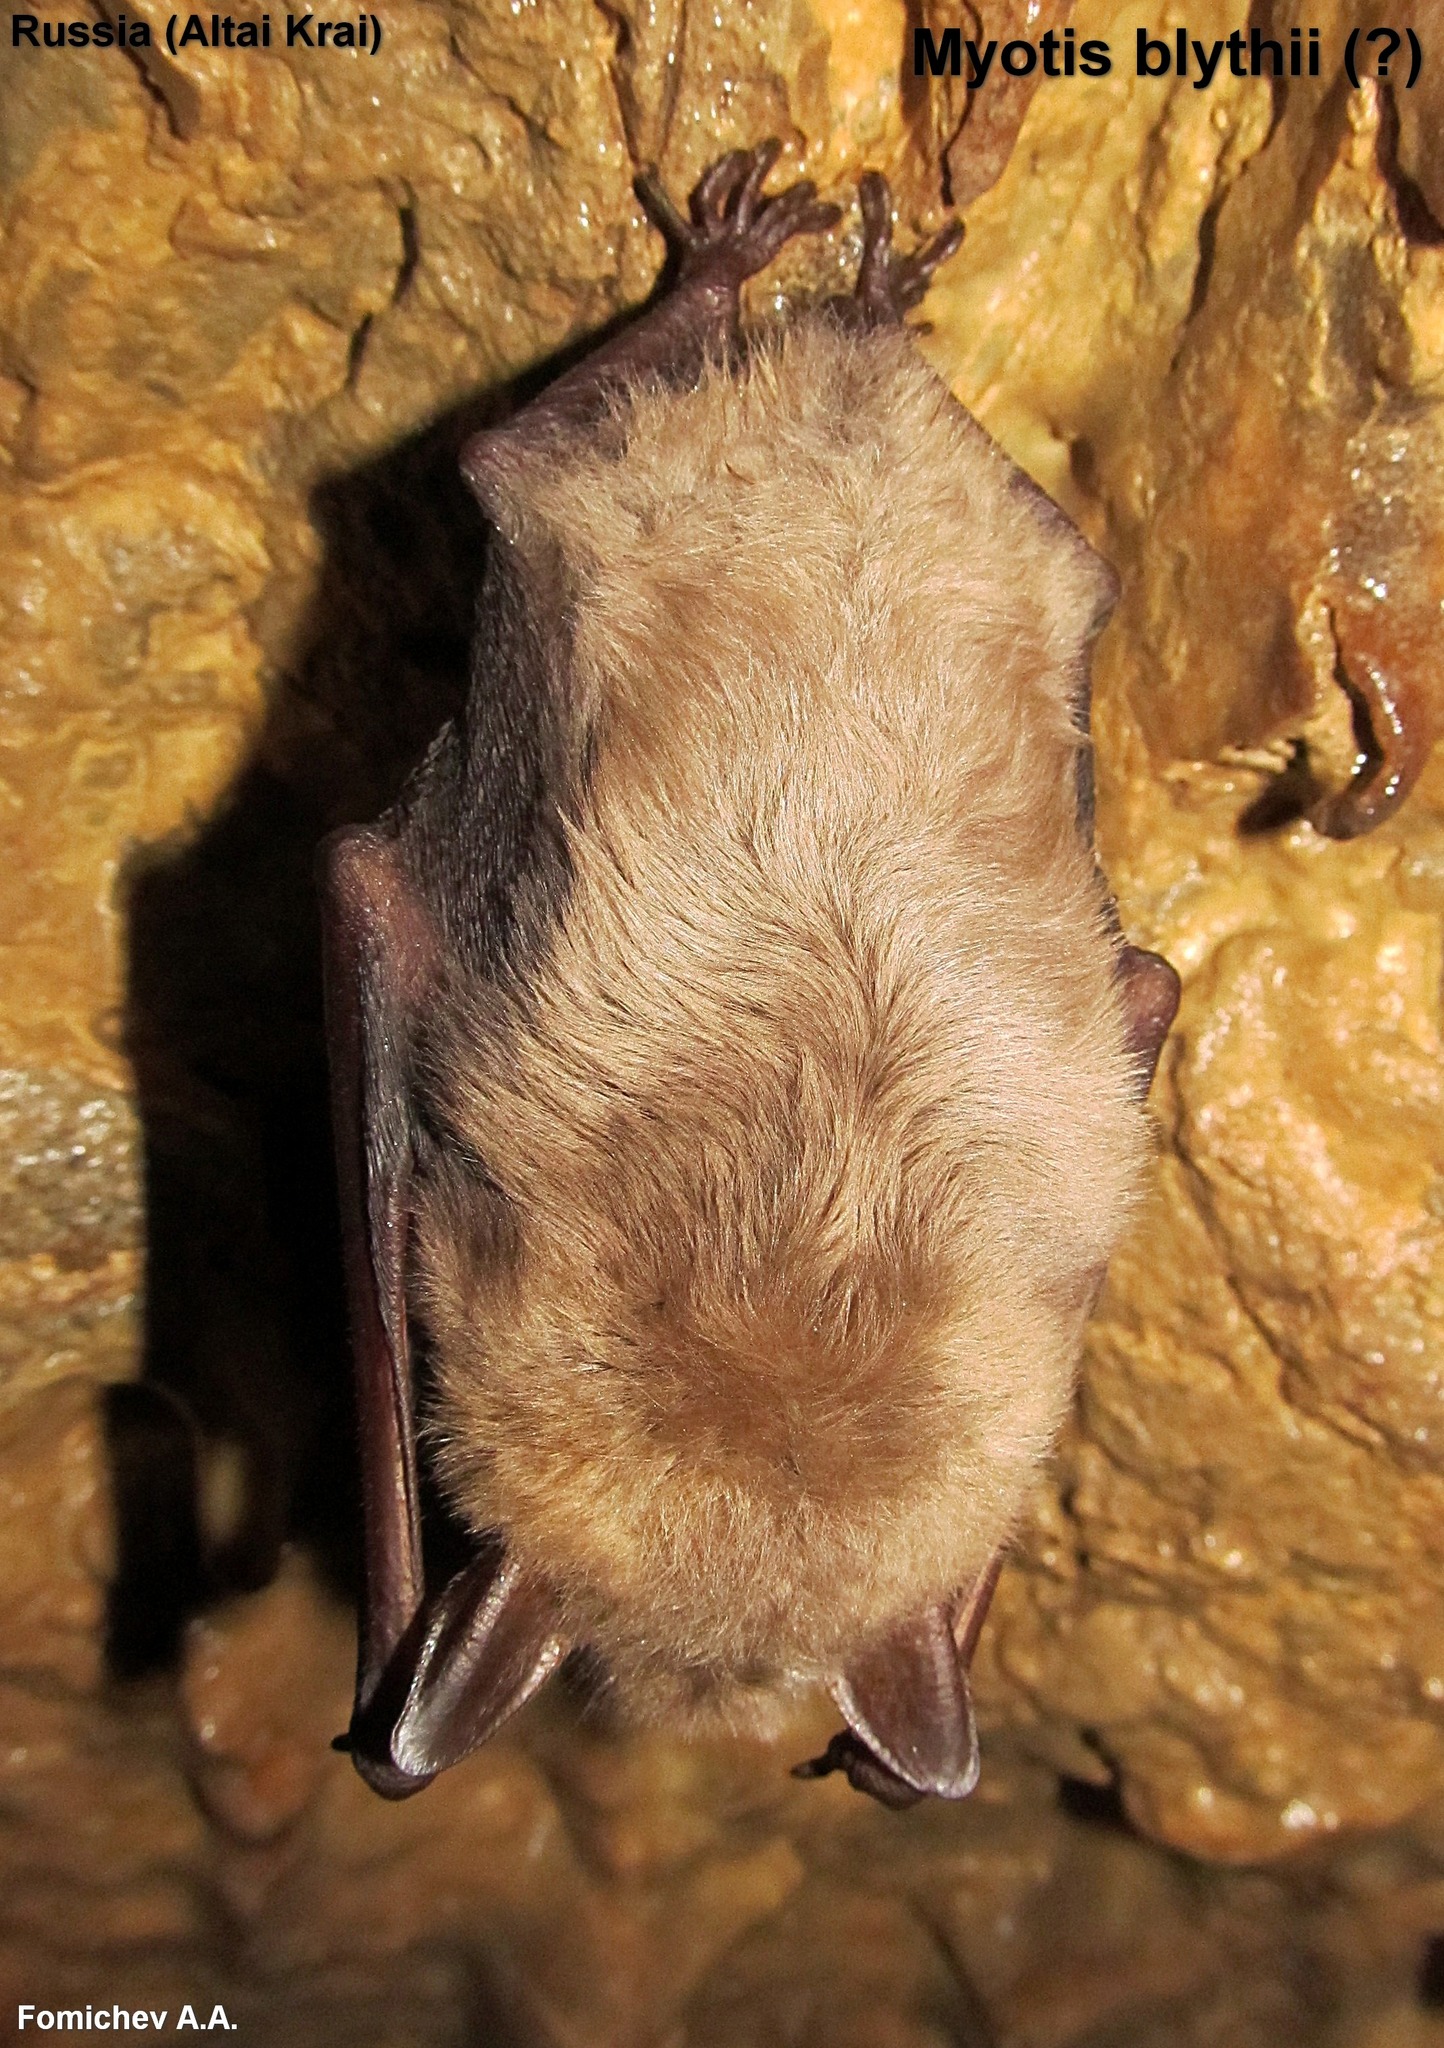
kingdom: Animalia
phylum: Chordata
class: Mammalia
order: Chiroptera
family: Vespertilionidae
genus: Myotis
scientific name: Myotis blythii
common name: Lesser mouse-eared myotis
